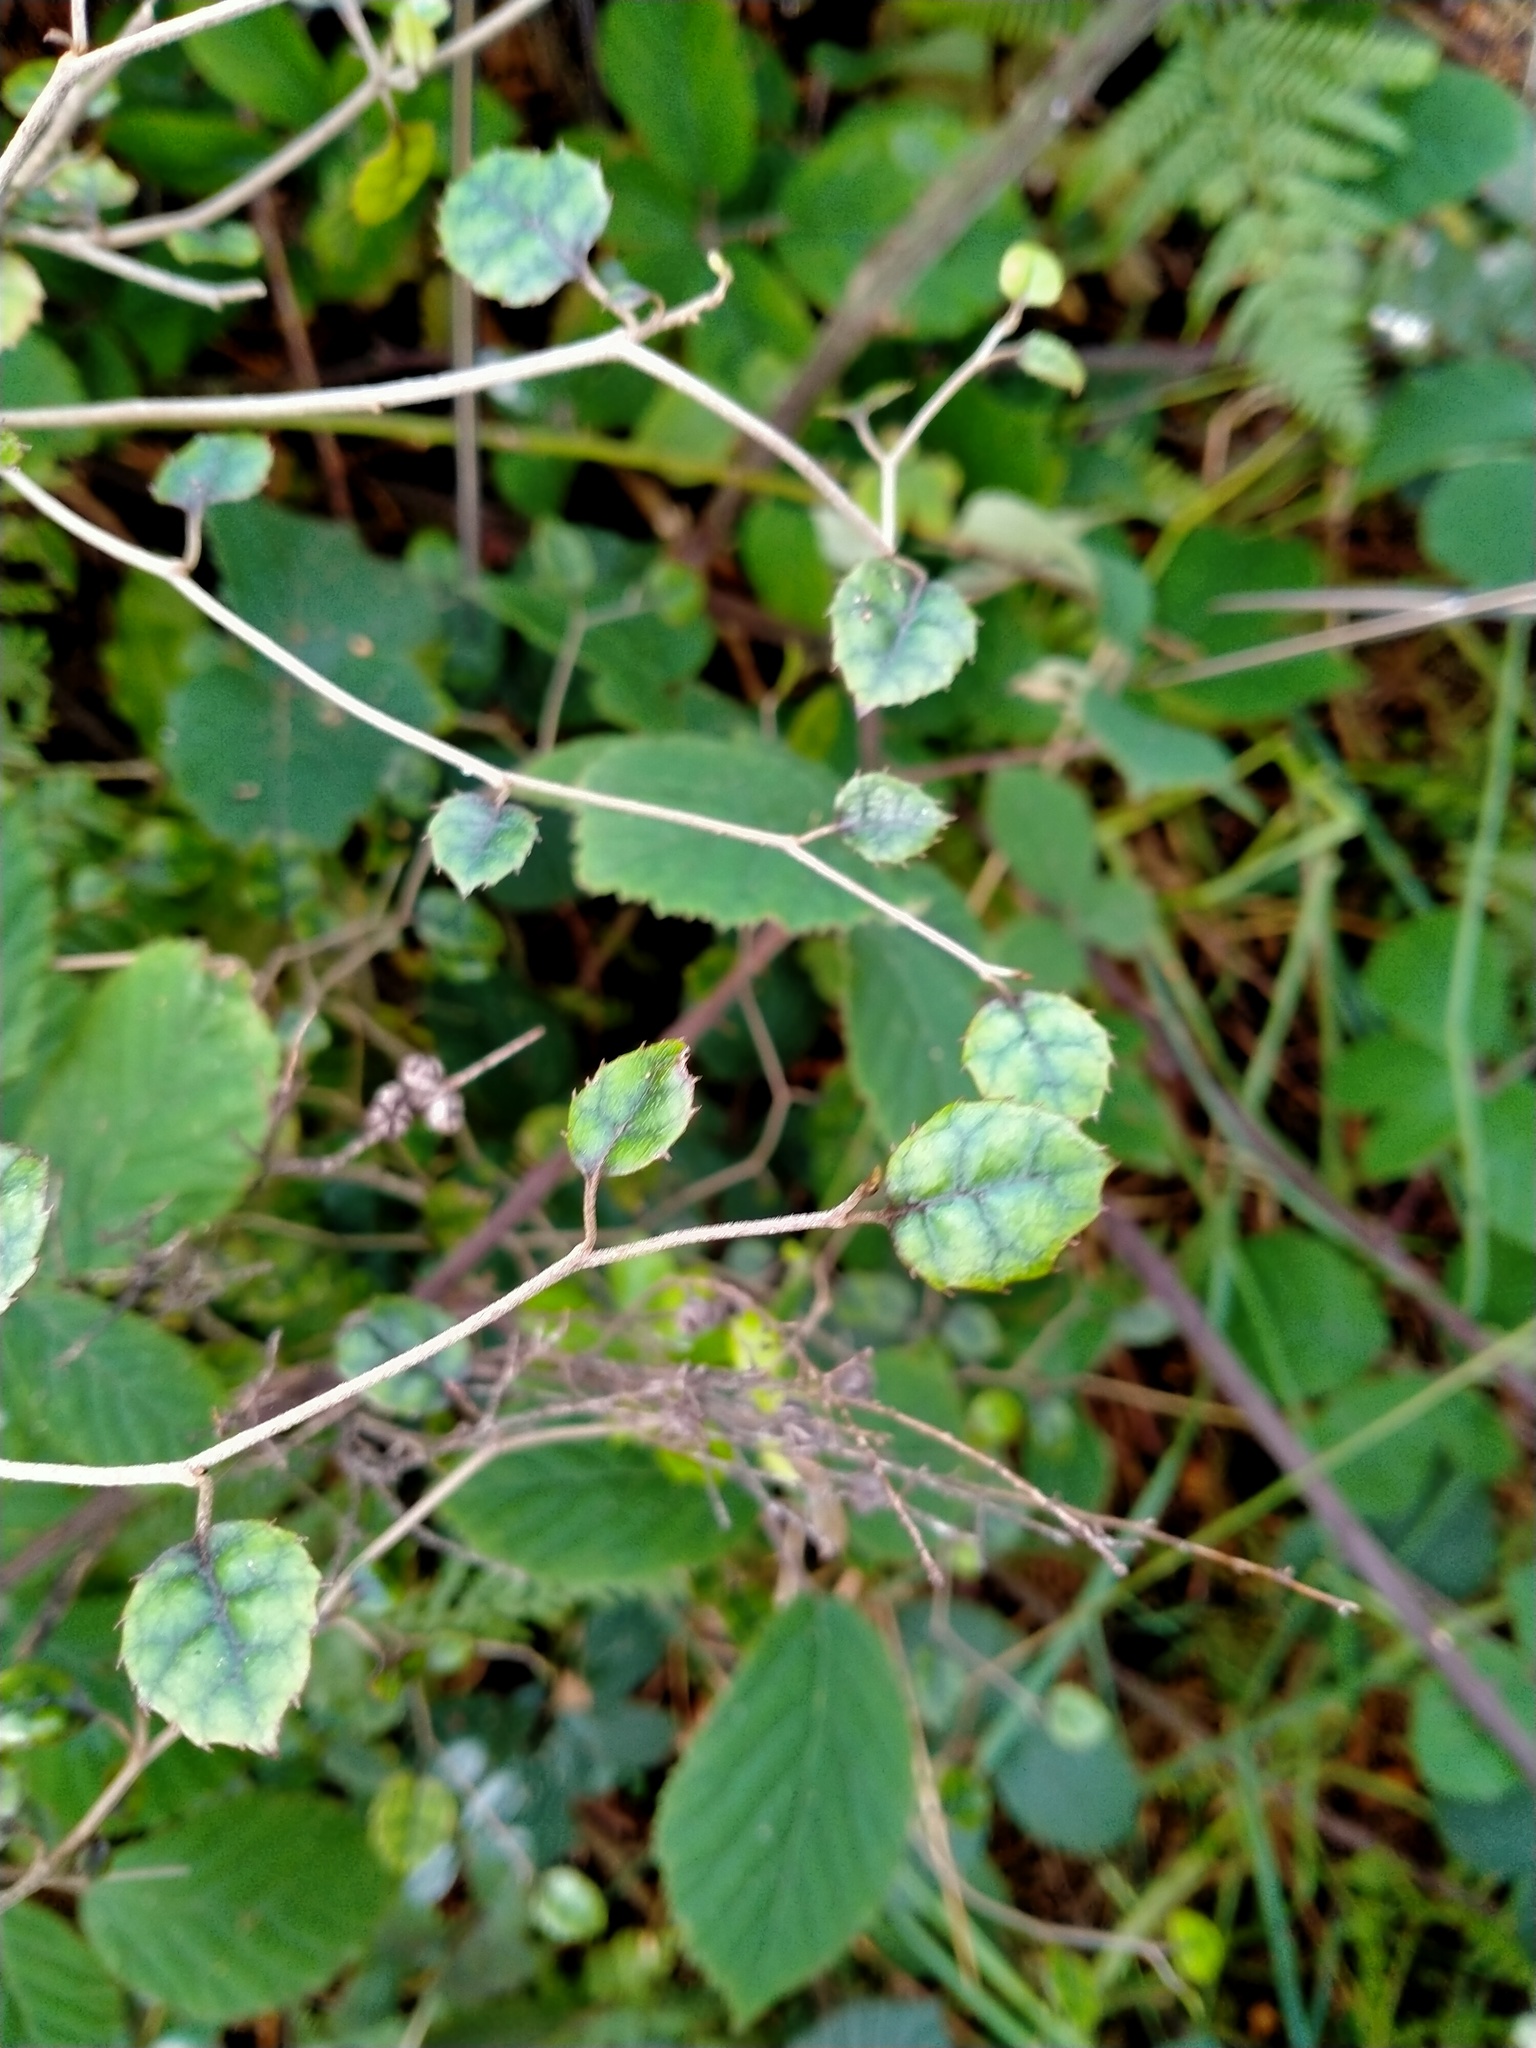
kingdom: Plantae
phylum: Tracheophyta
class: Magnoliopsida
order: Asterales
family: Rousseaceae
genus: Carpodetus
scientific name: Carpodetus serratus
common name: White mapau
